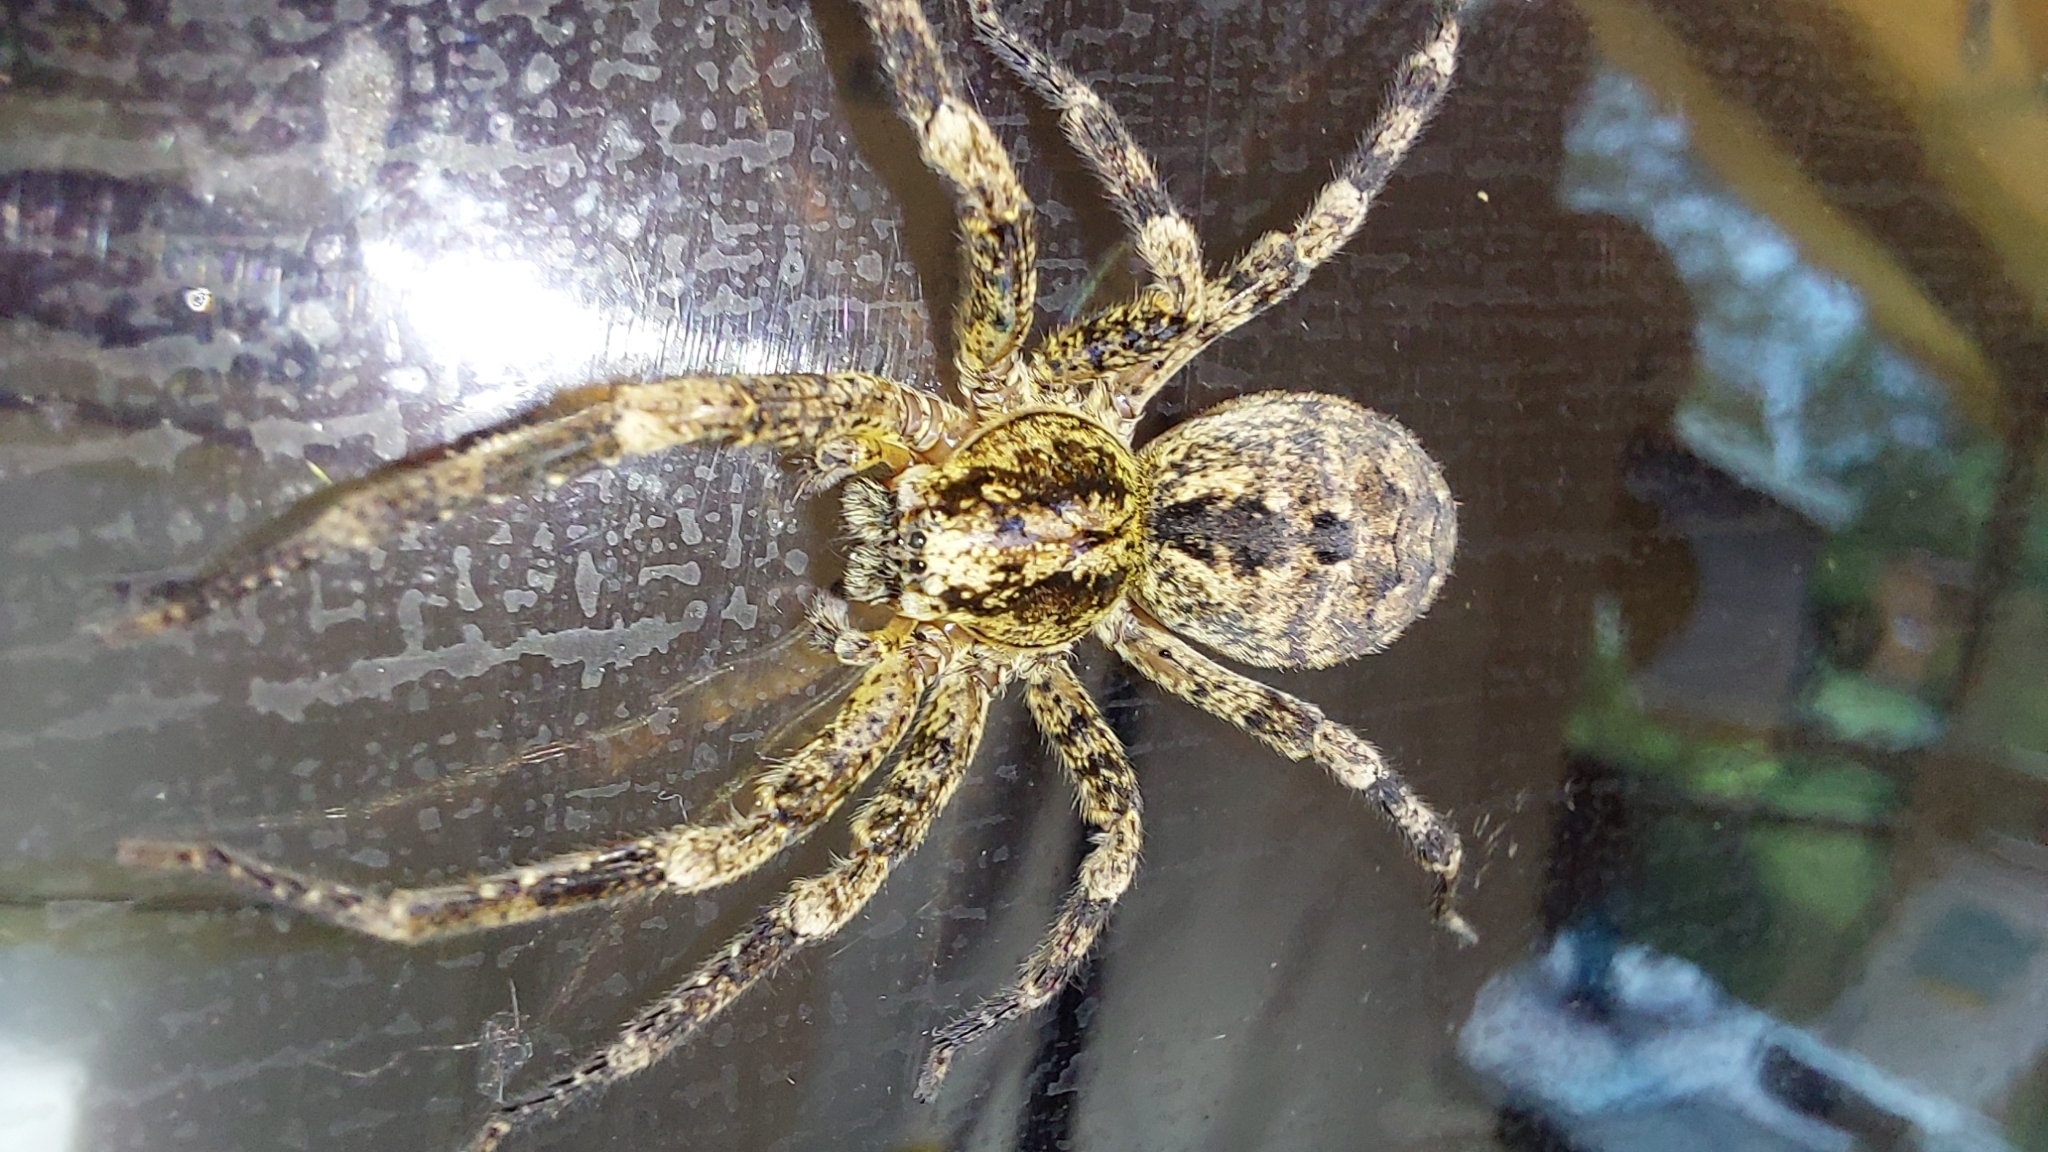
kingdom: Animalia
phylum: Arthropoda
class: Arachnida
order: Araneae
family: Zoropsidae
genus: Zoropsis
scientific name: Zoropsis spinimana
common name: Zoropsid spider
